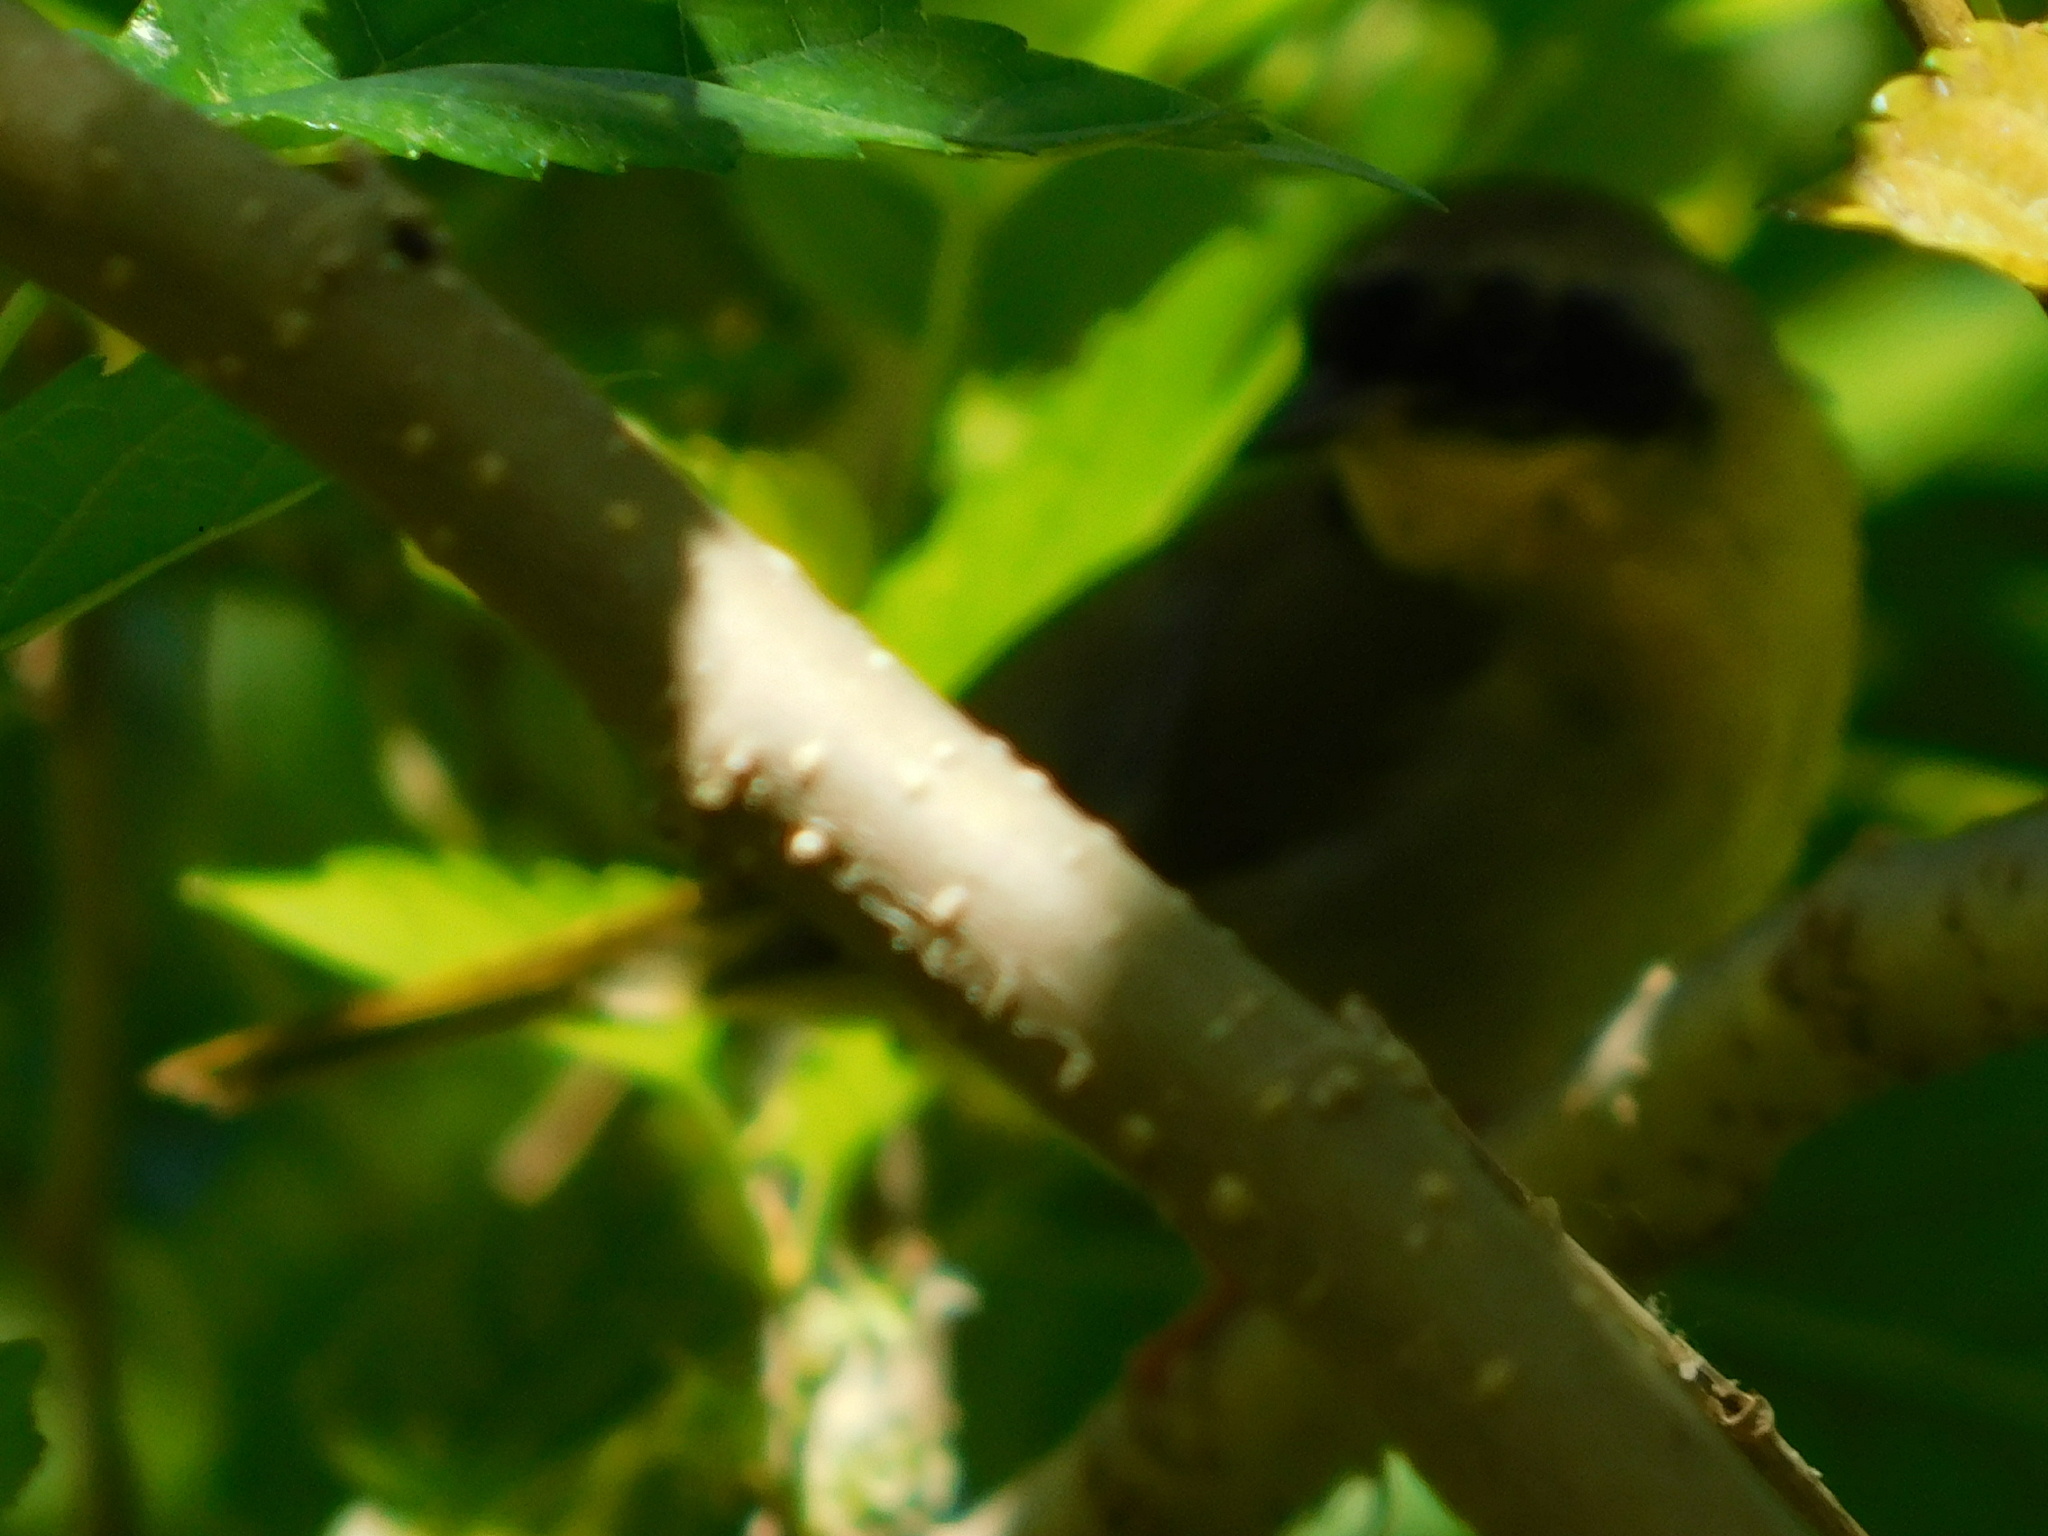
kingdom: Animalia
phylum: Chordata
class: Aves
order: Passeriformes
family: Parulidae
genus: Geothlypis
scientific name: Geothlypis trichas
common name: Common yellowthroat
